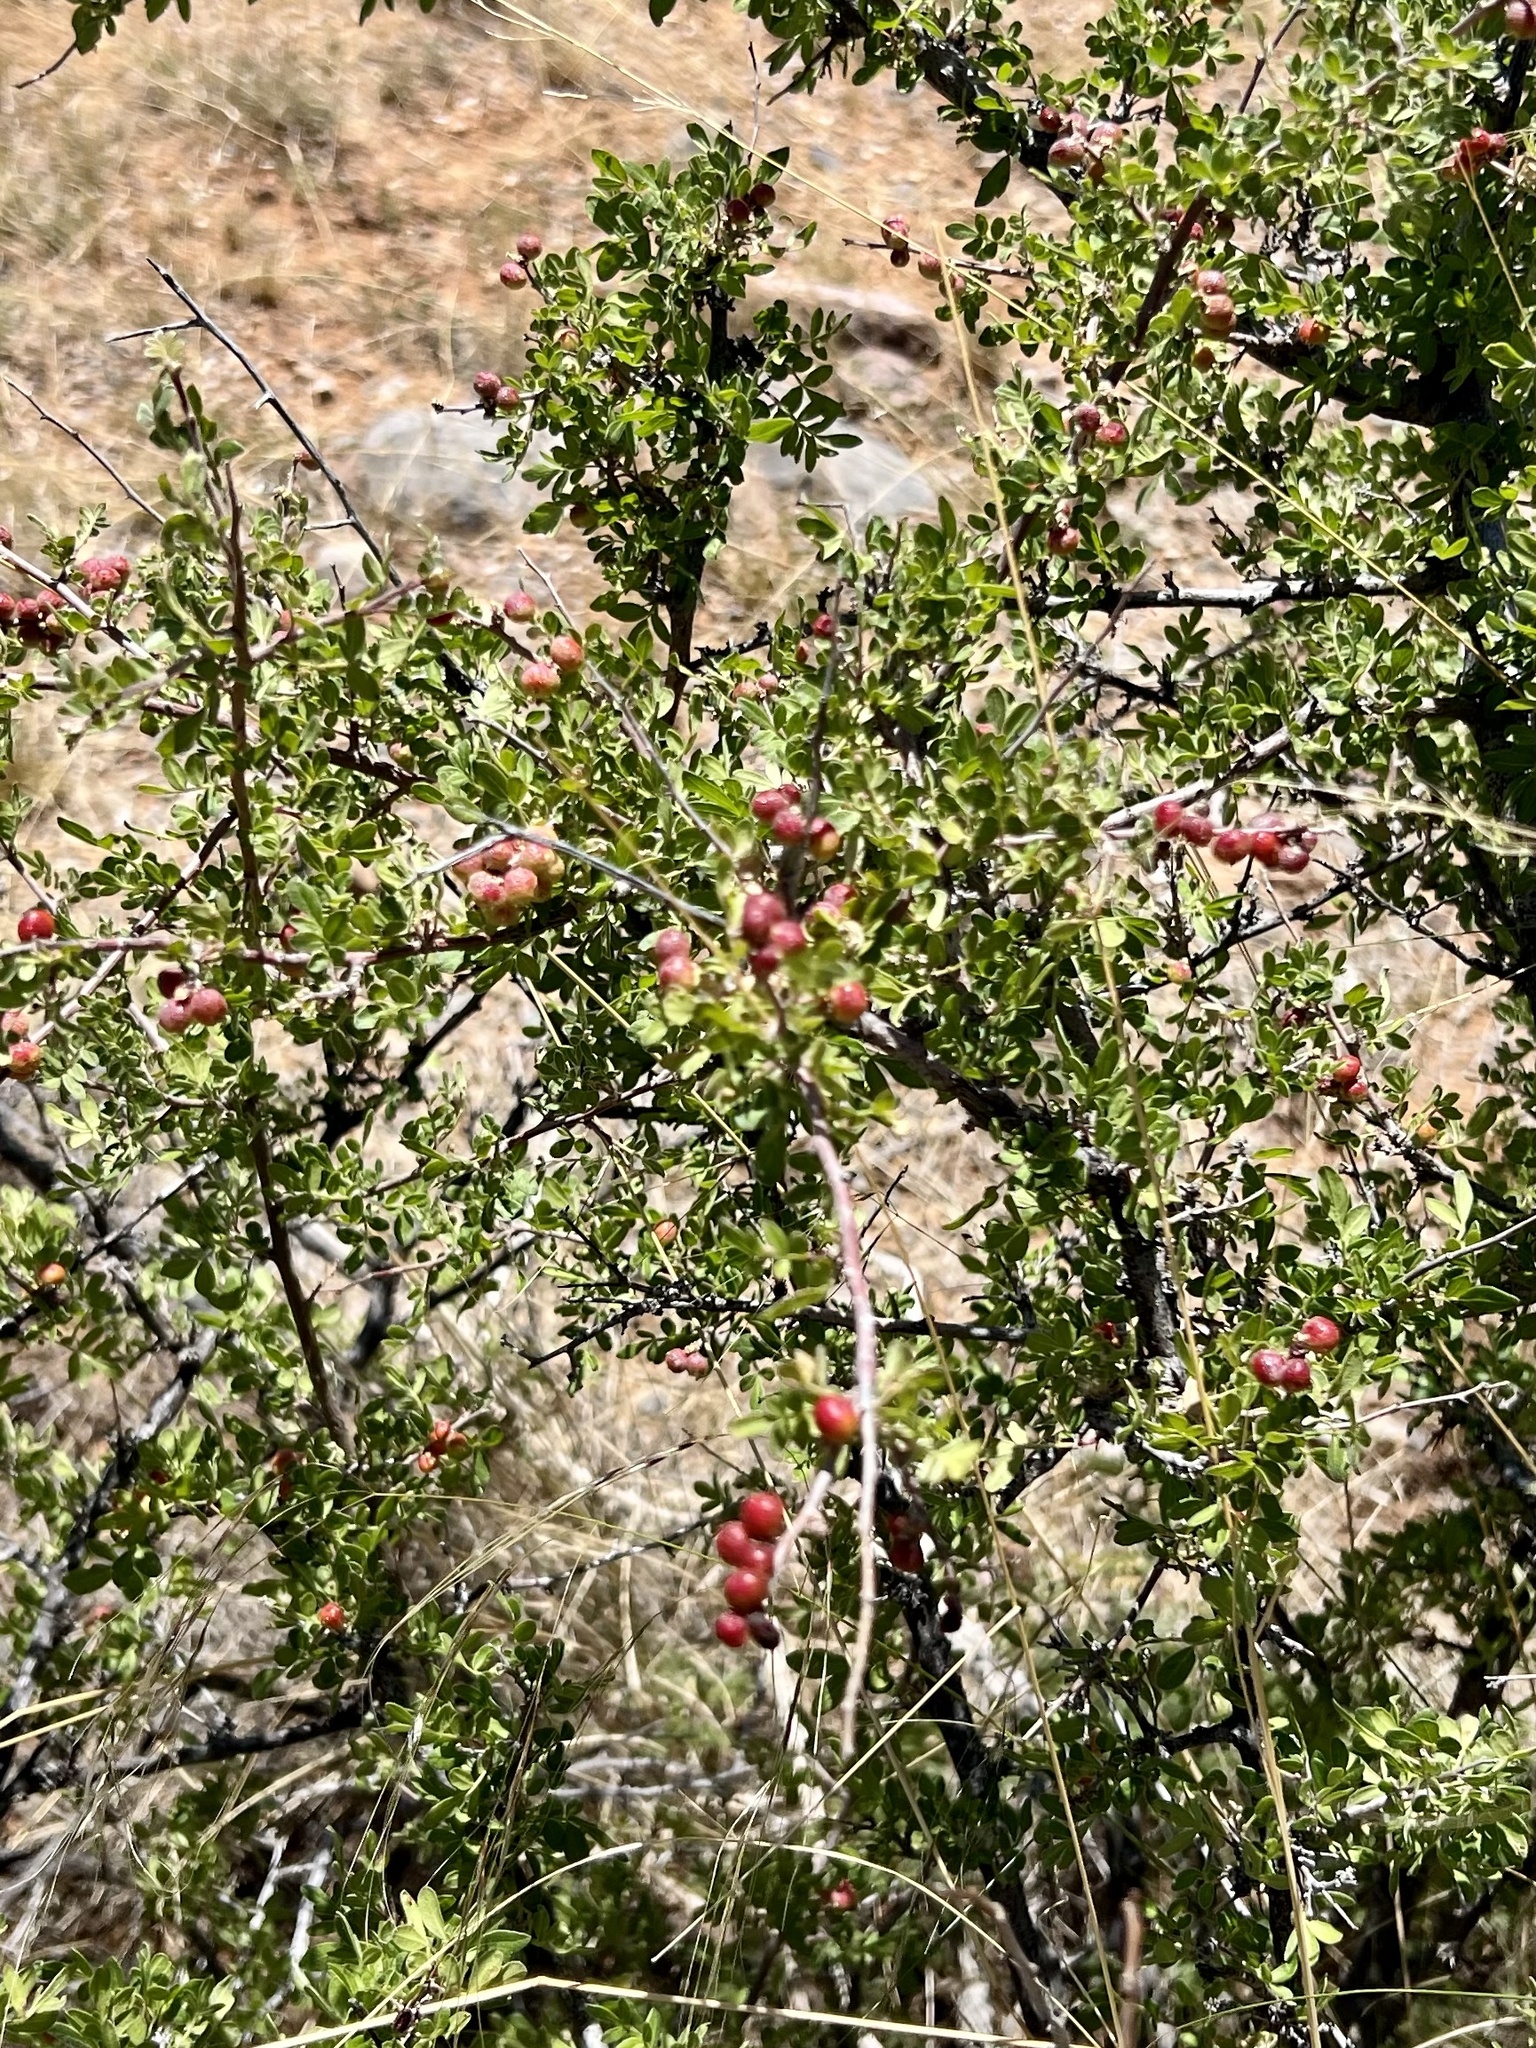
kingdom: Plantae
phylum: Tracheophyta
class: Magnoliopsida
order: Sapindales
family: Anacardiaceae
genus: Rhus
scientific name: Rhus microphylla
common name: Desert sumac
